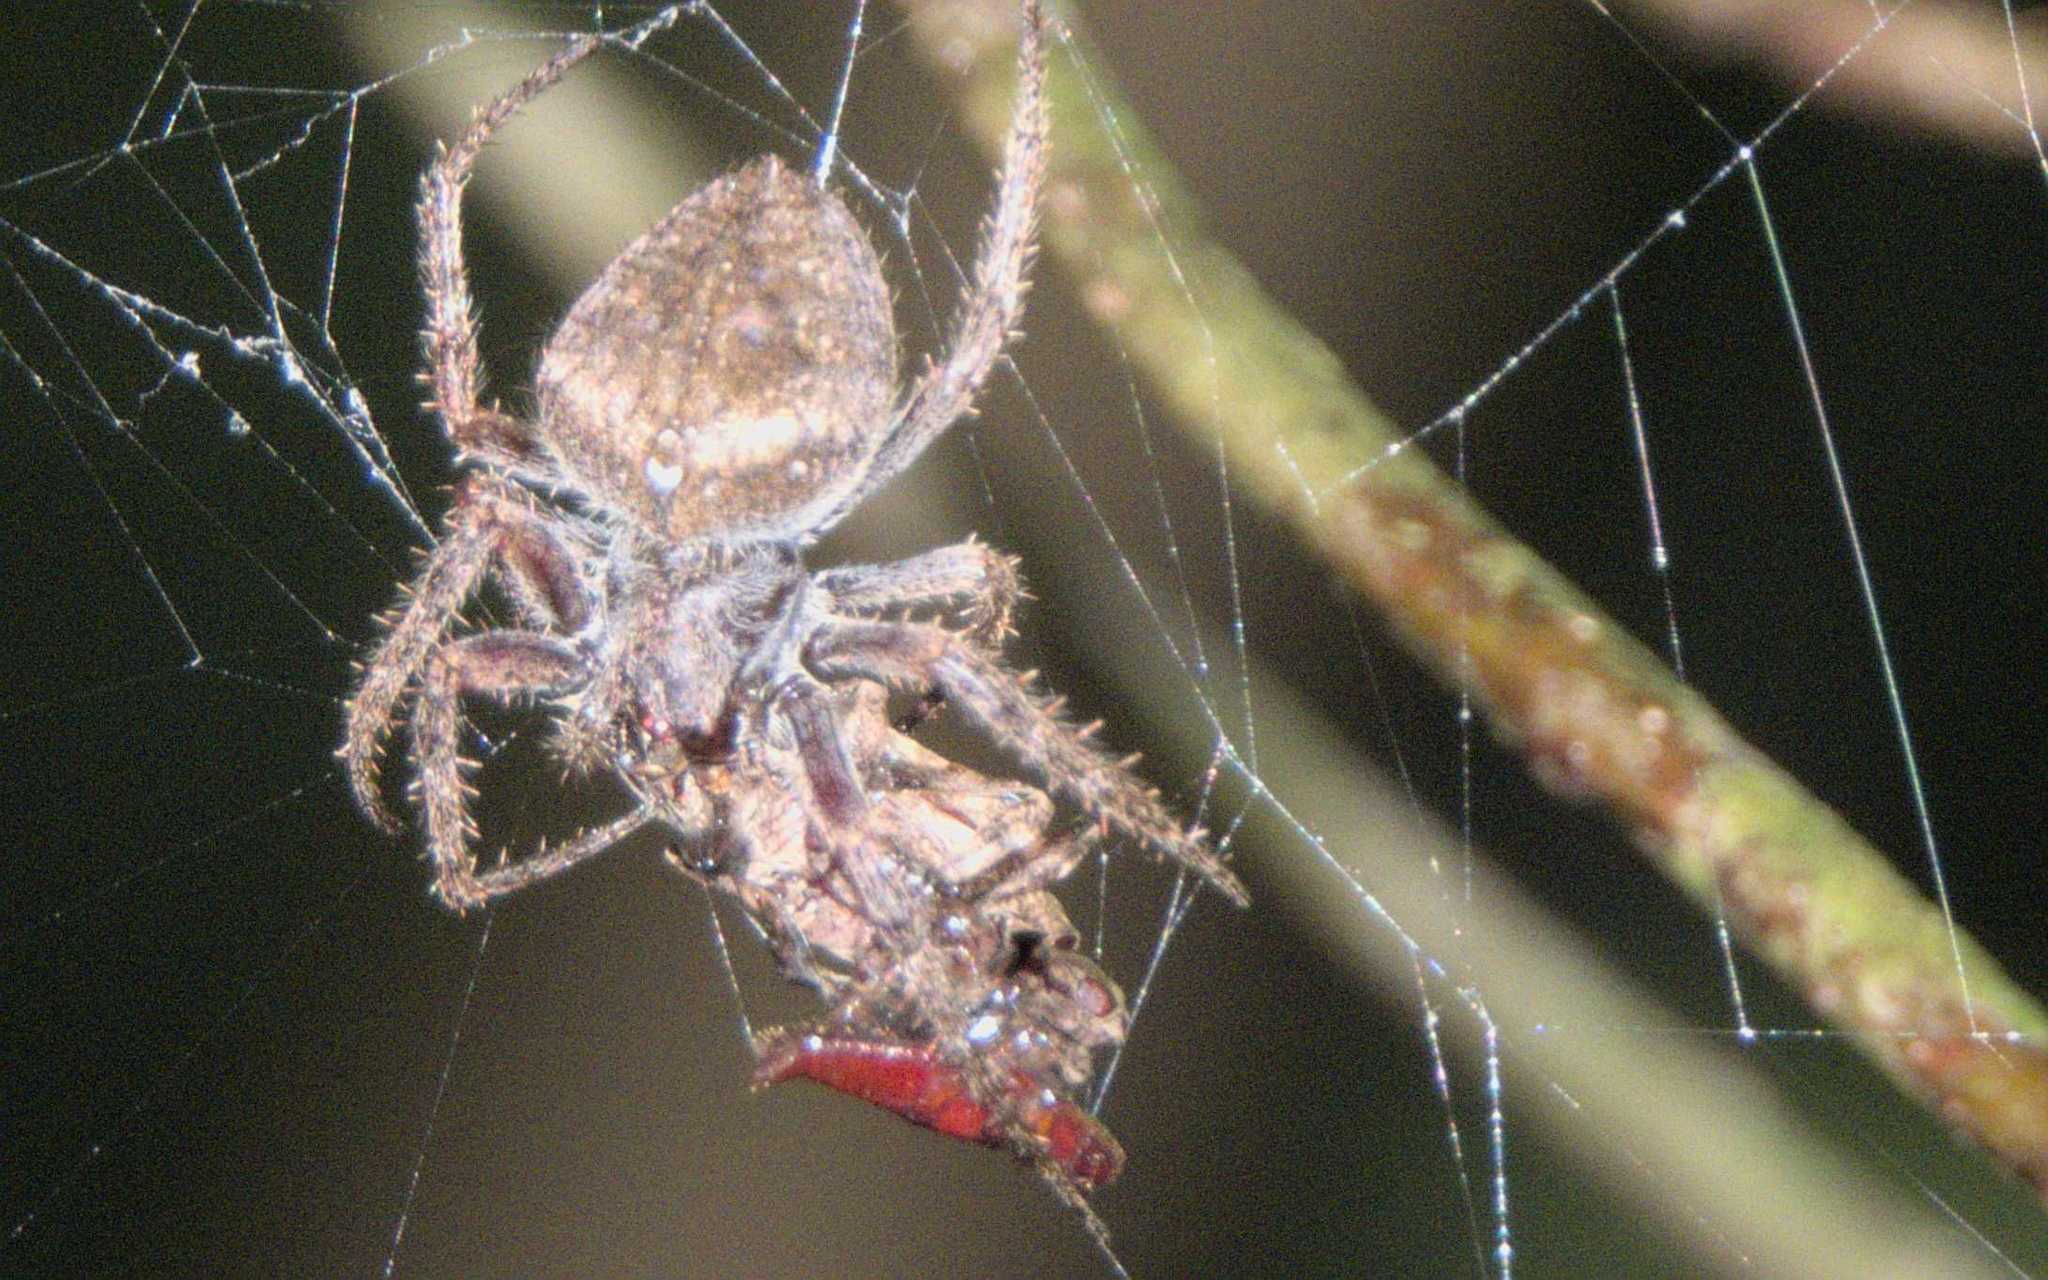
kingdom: Animalia
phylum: Arthropoda
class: Arachnida
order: Araneae
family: Araneidae
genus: Eriophora
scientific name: Eriophora edax
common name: Orb weavers
